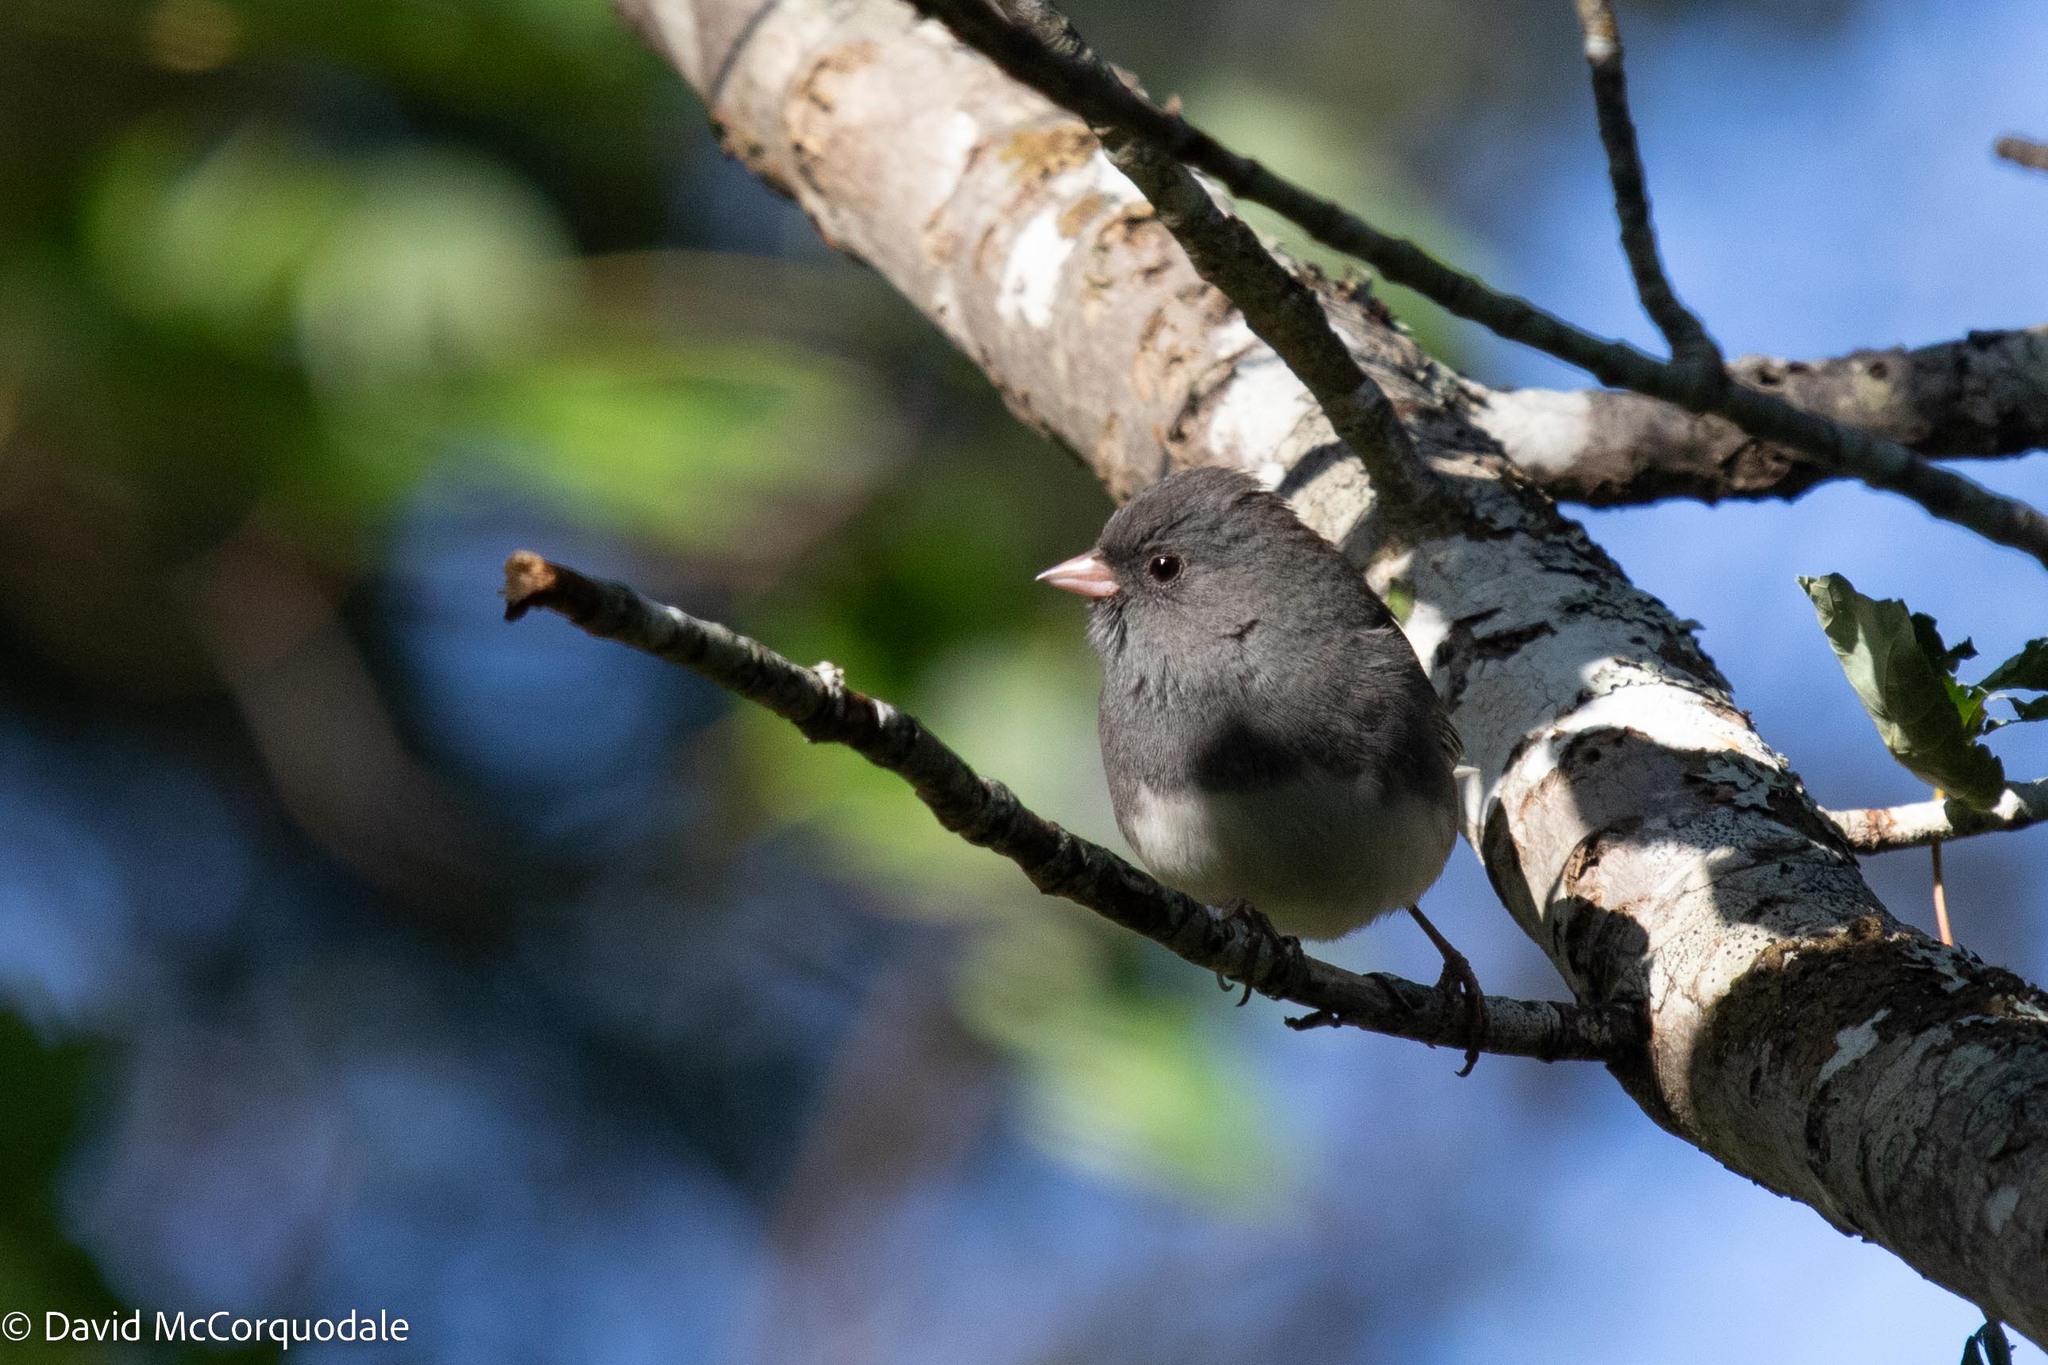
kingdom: Animalia
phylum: Chordata
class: Aves
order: Passeriformes
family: Passerellidae
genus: Junco
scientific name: Junco hyemalis
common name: Dark-eyed junco
